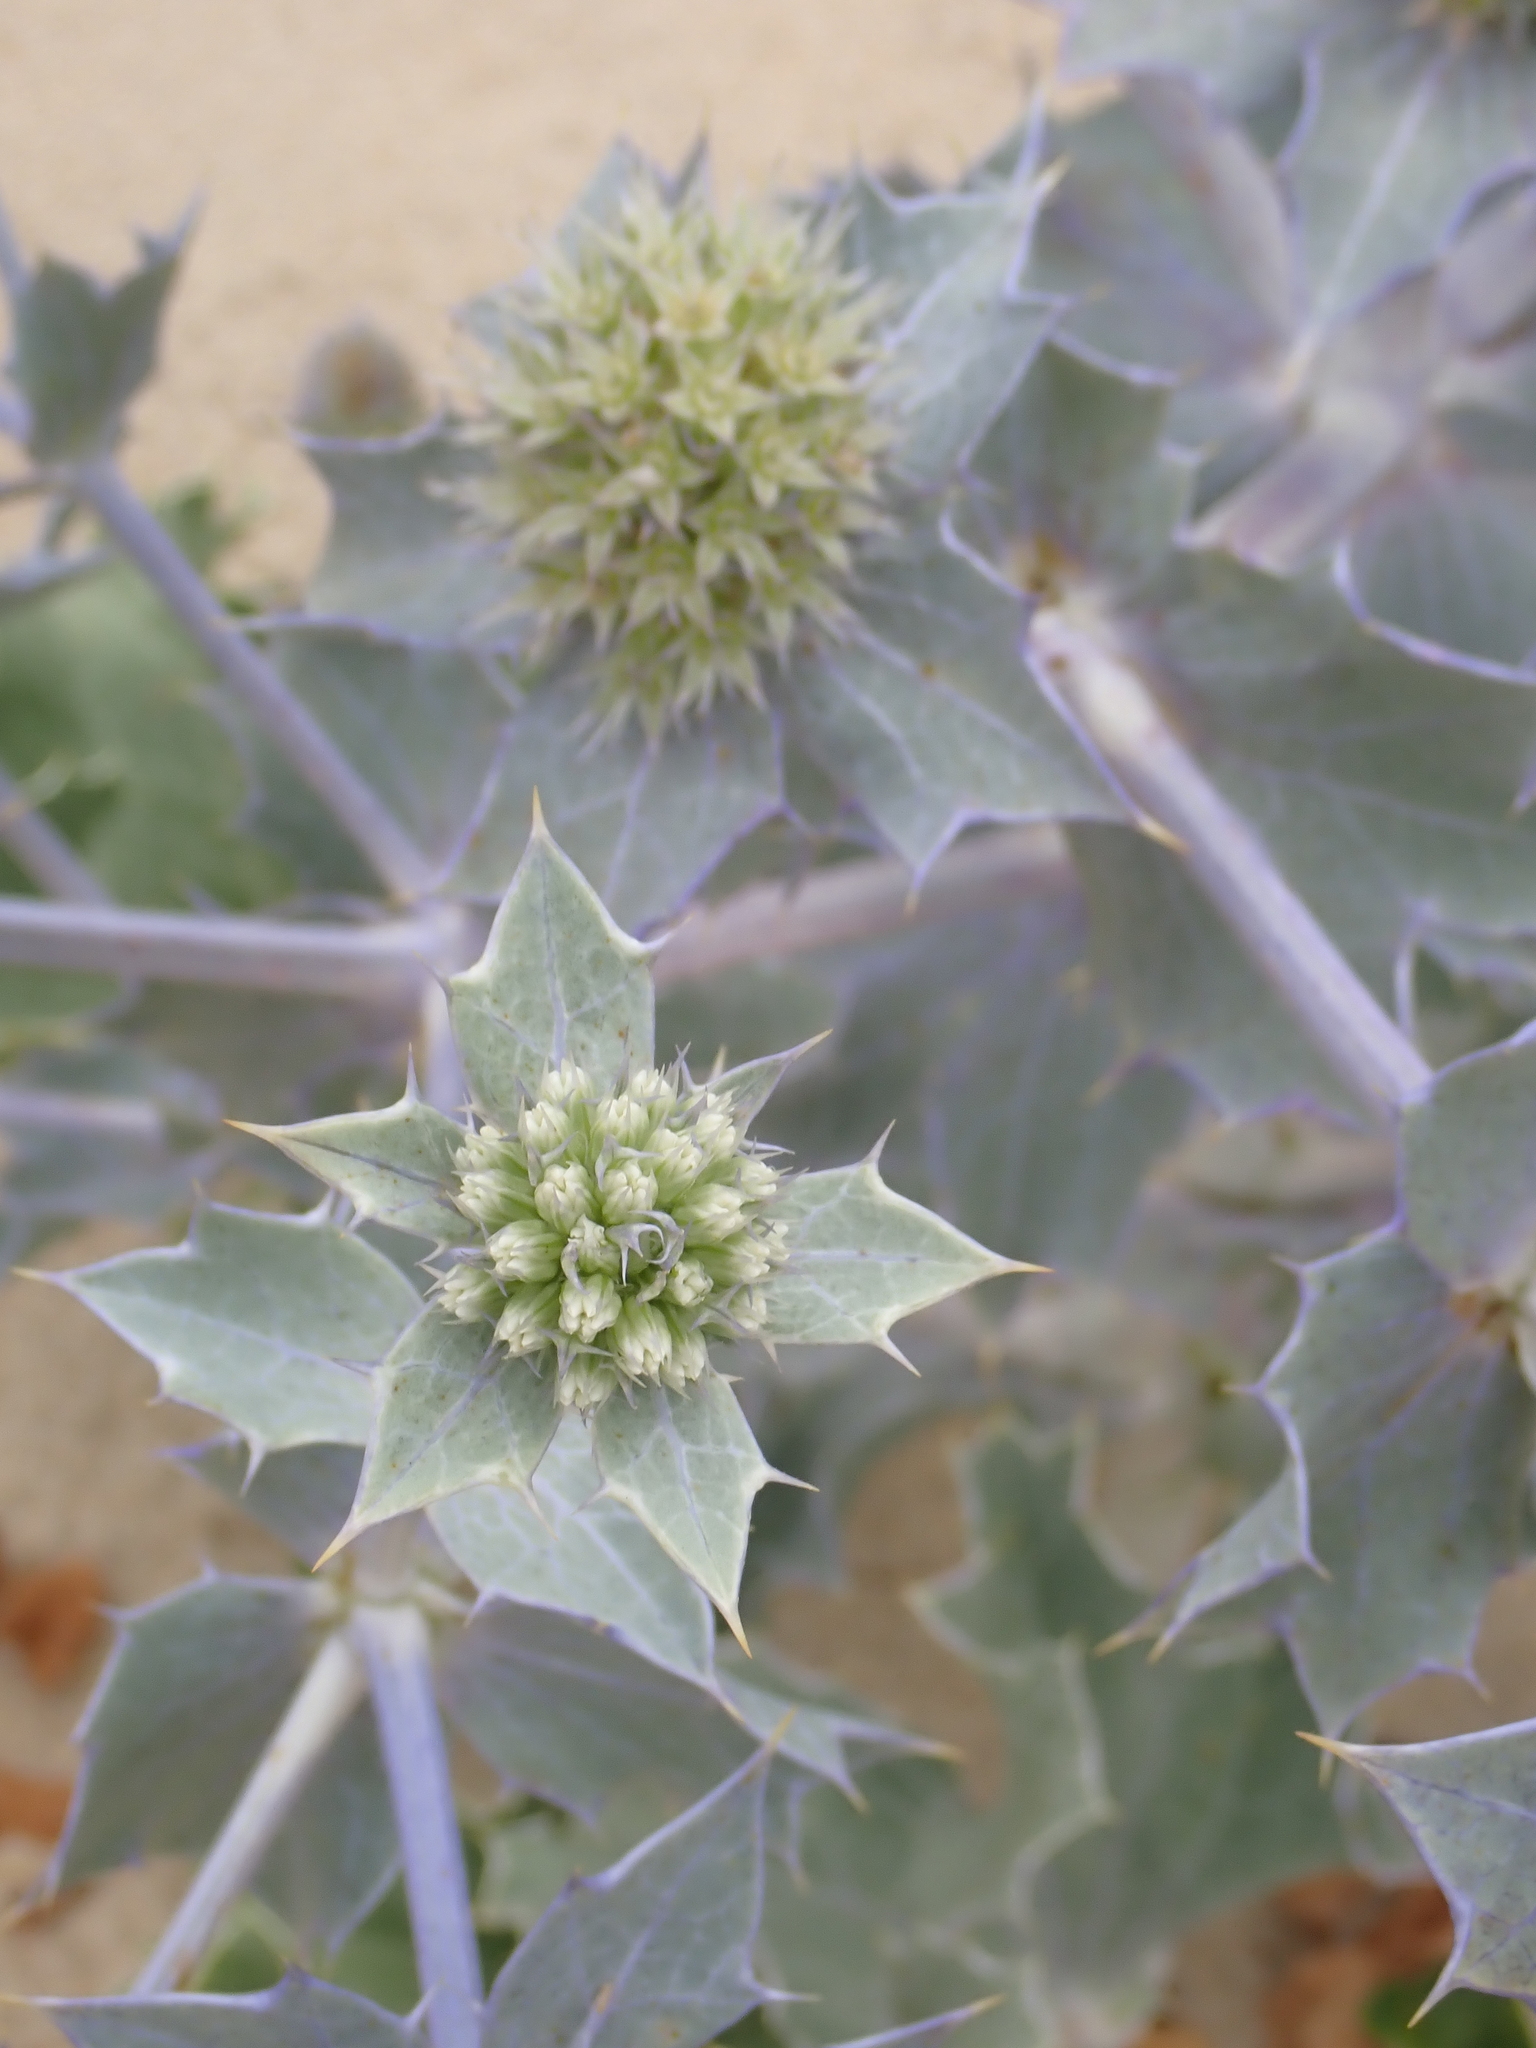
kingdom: Plantae
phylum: Tracheophyta
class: Magnoliopsida
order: Apiales
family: Apiaceae
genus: Eryngium
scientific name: Eryngium maritimum
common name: Sea-holly
